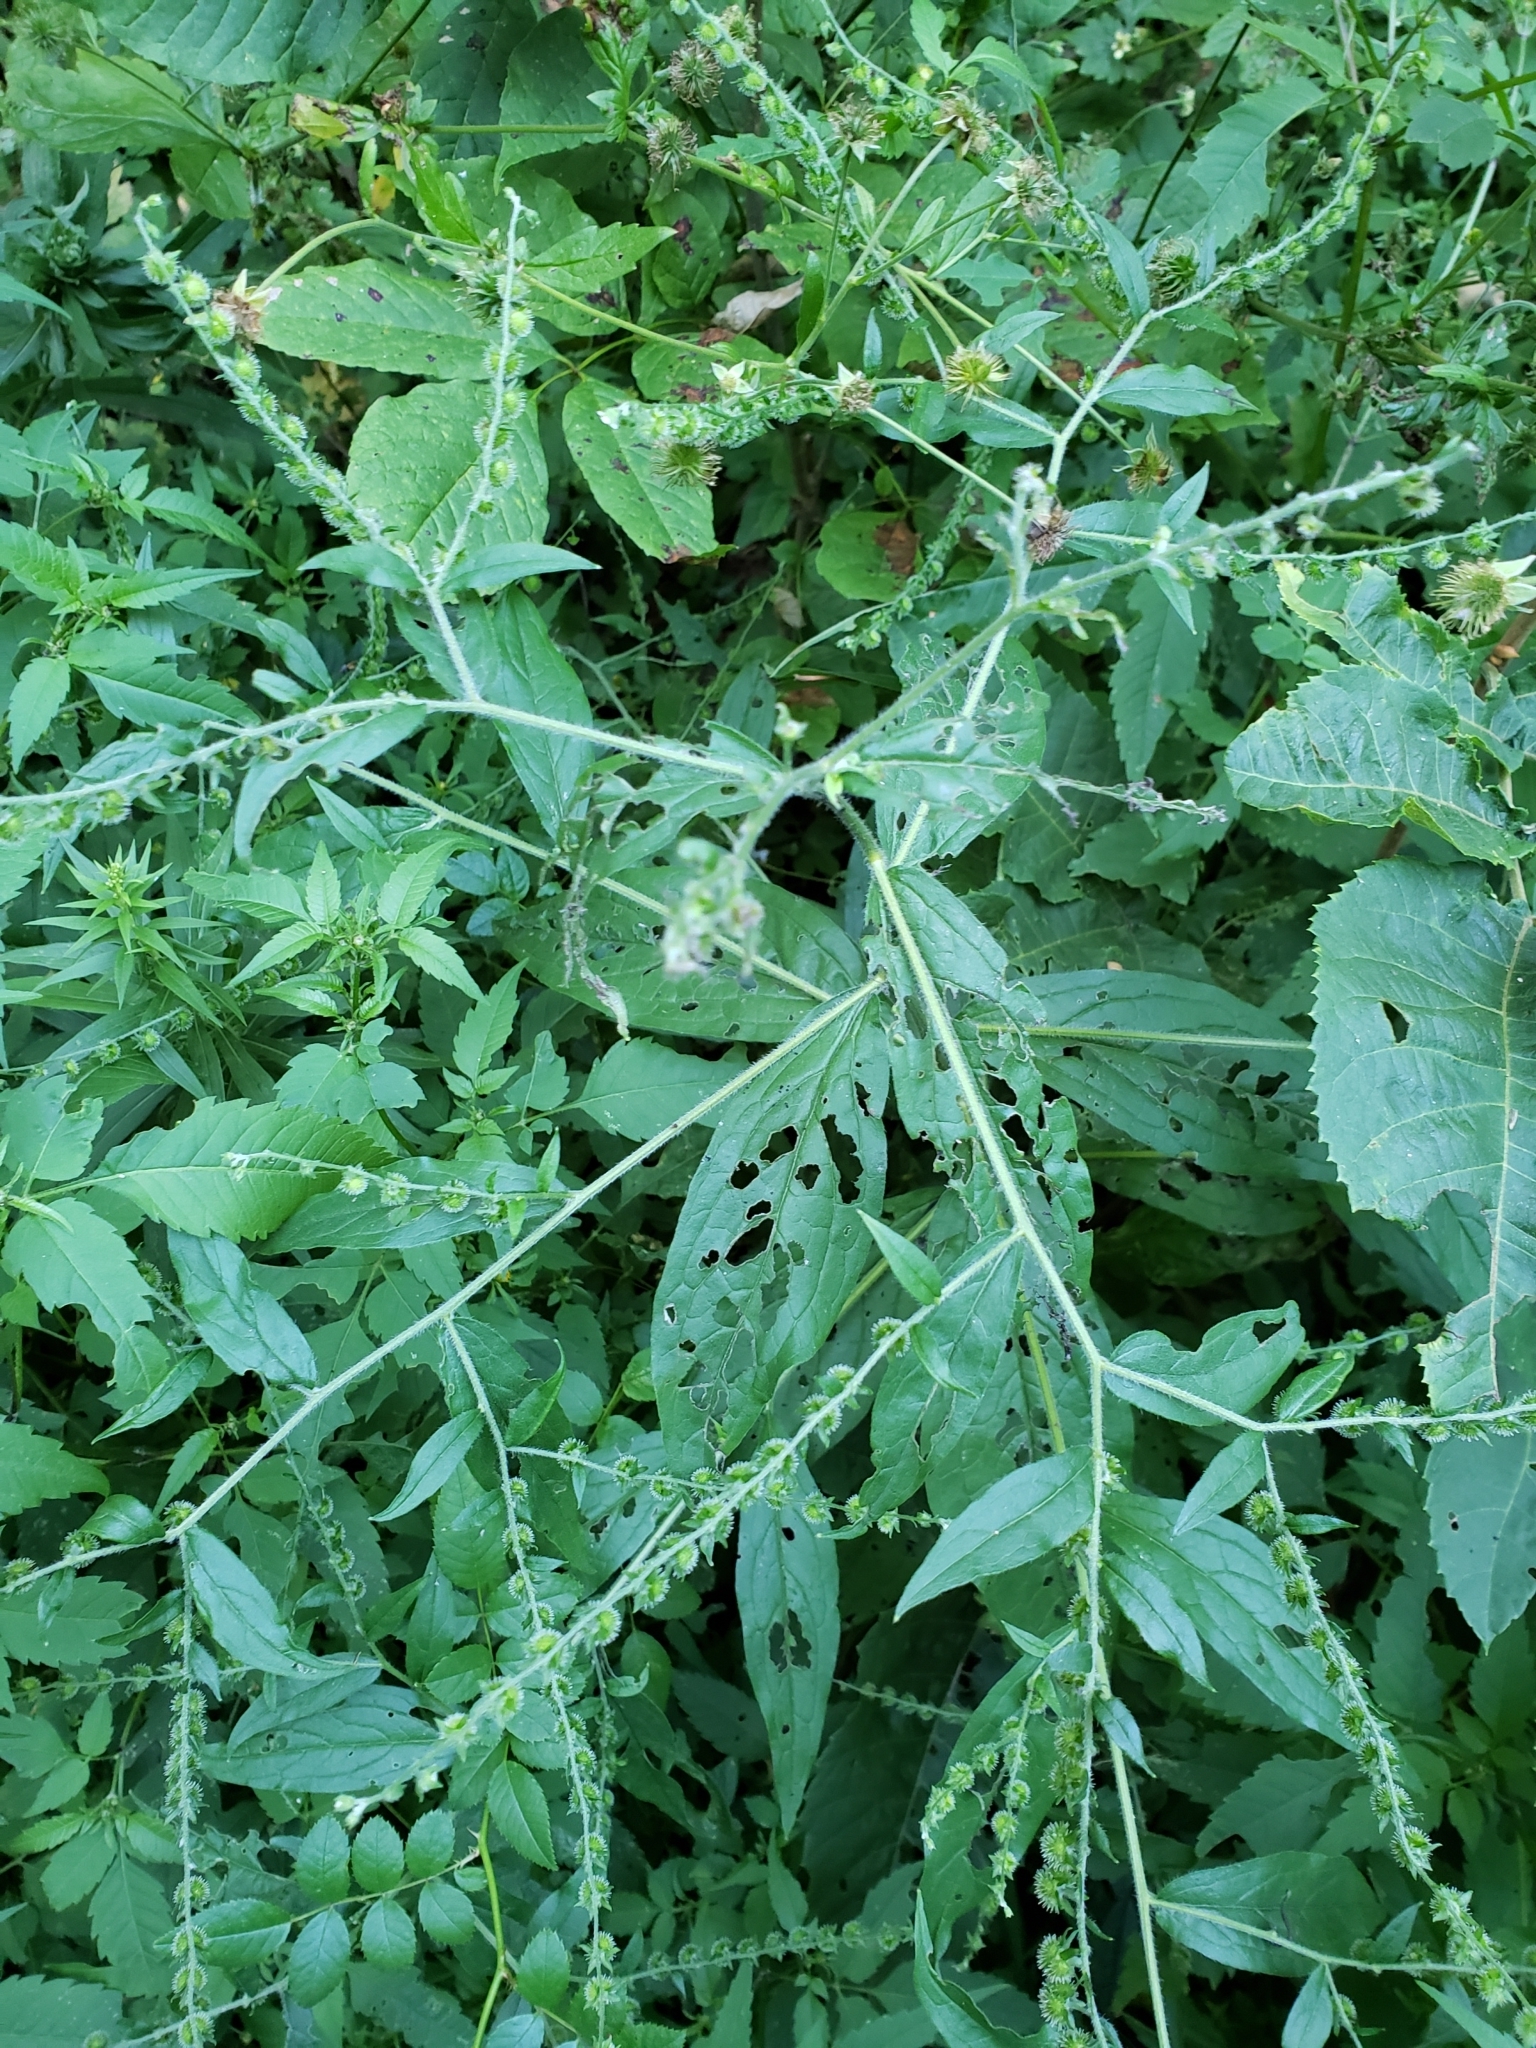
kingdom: Plantae
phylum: Tracheophyta
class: Magnoliopsida
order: Boraginales
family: Boraginaceae
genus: Hackelia
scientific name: Hackelia virginiana
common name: Beggar's-lice
